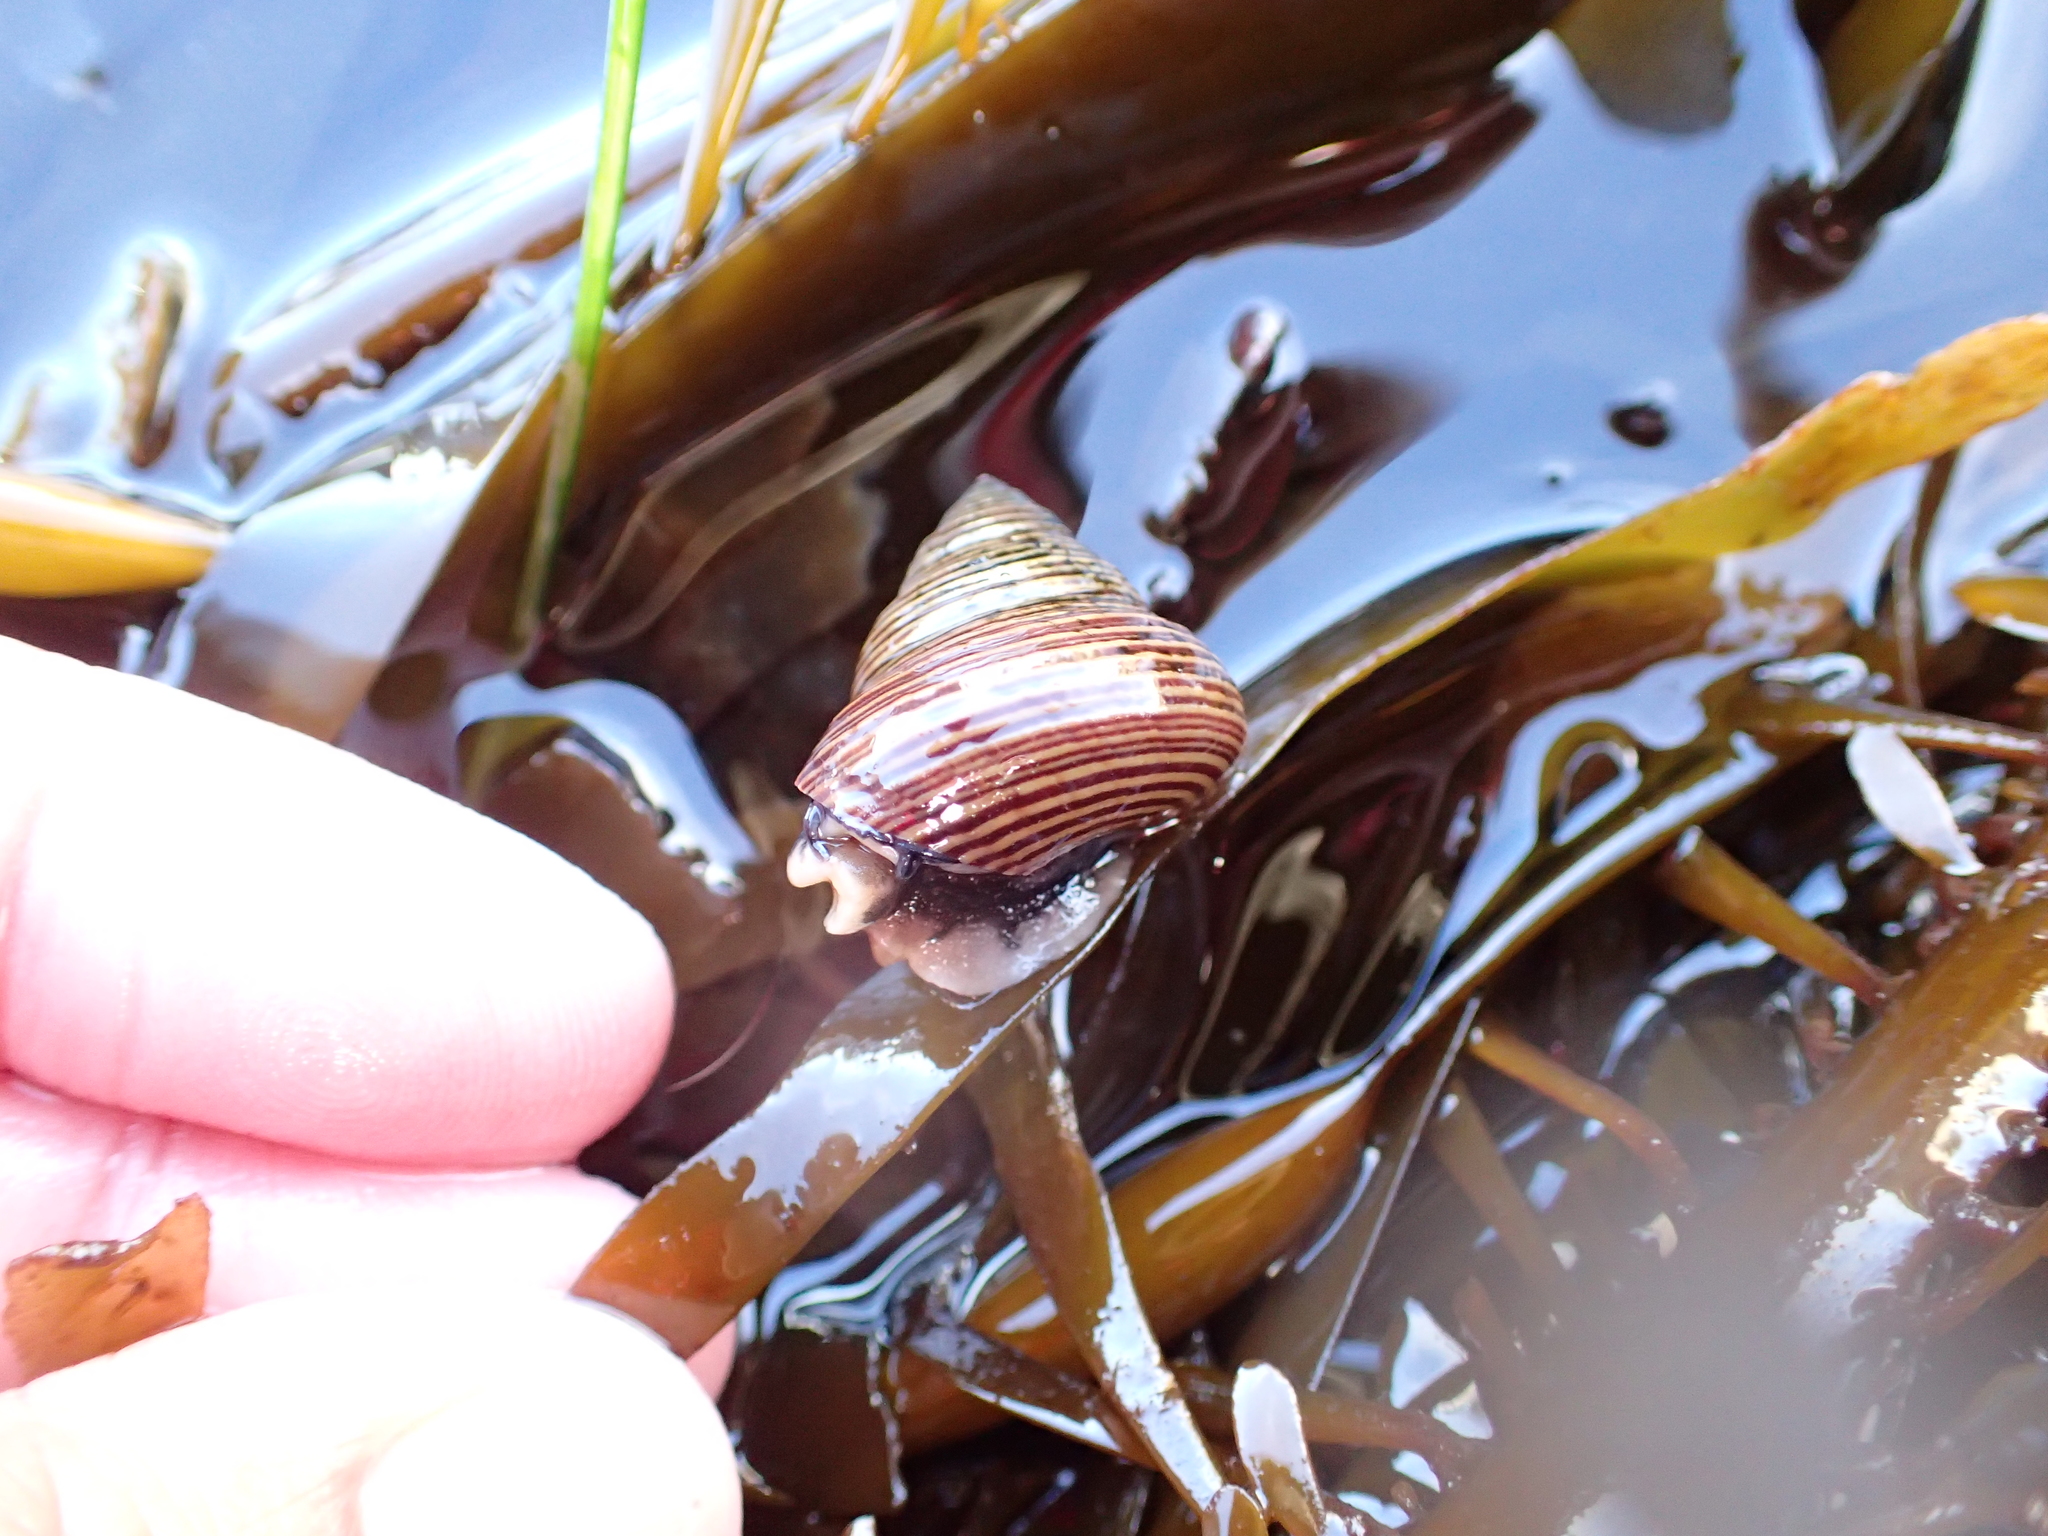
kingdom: Animalia
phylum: Mollusca
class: Gastropoda
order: Trochida
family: Calliostomatidae
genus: Calliostoma
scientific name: Calliostoma ligatum
